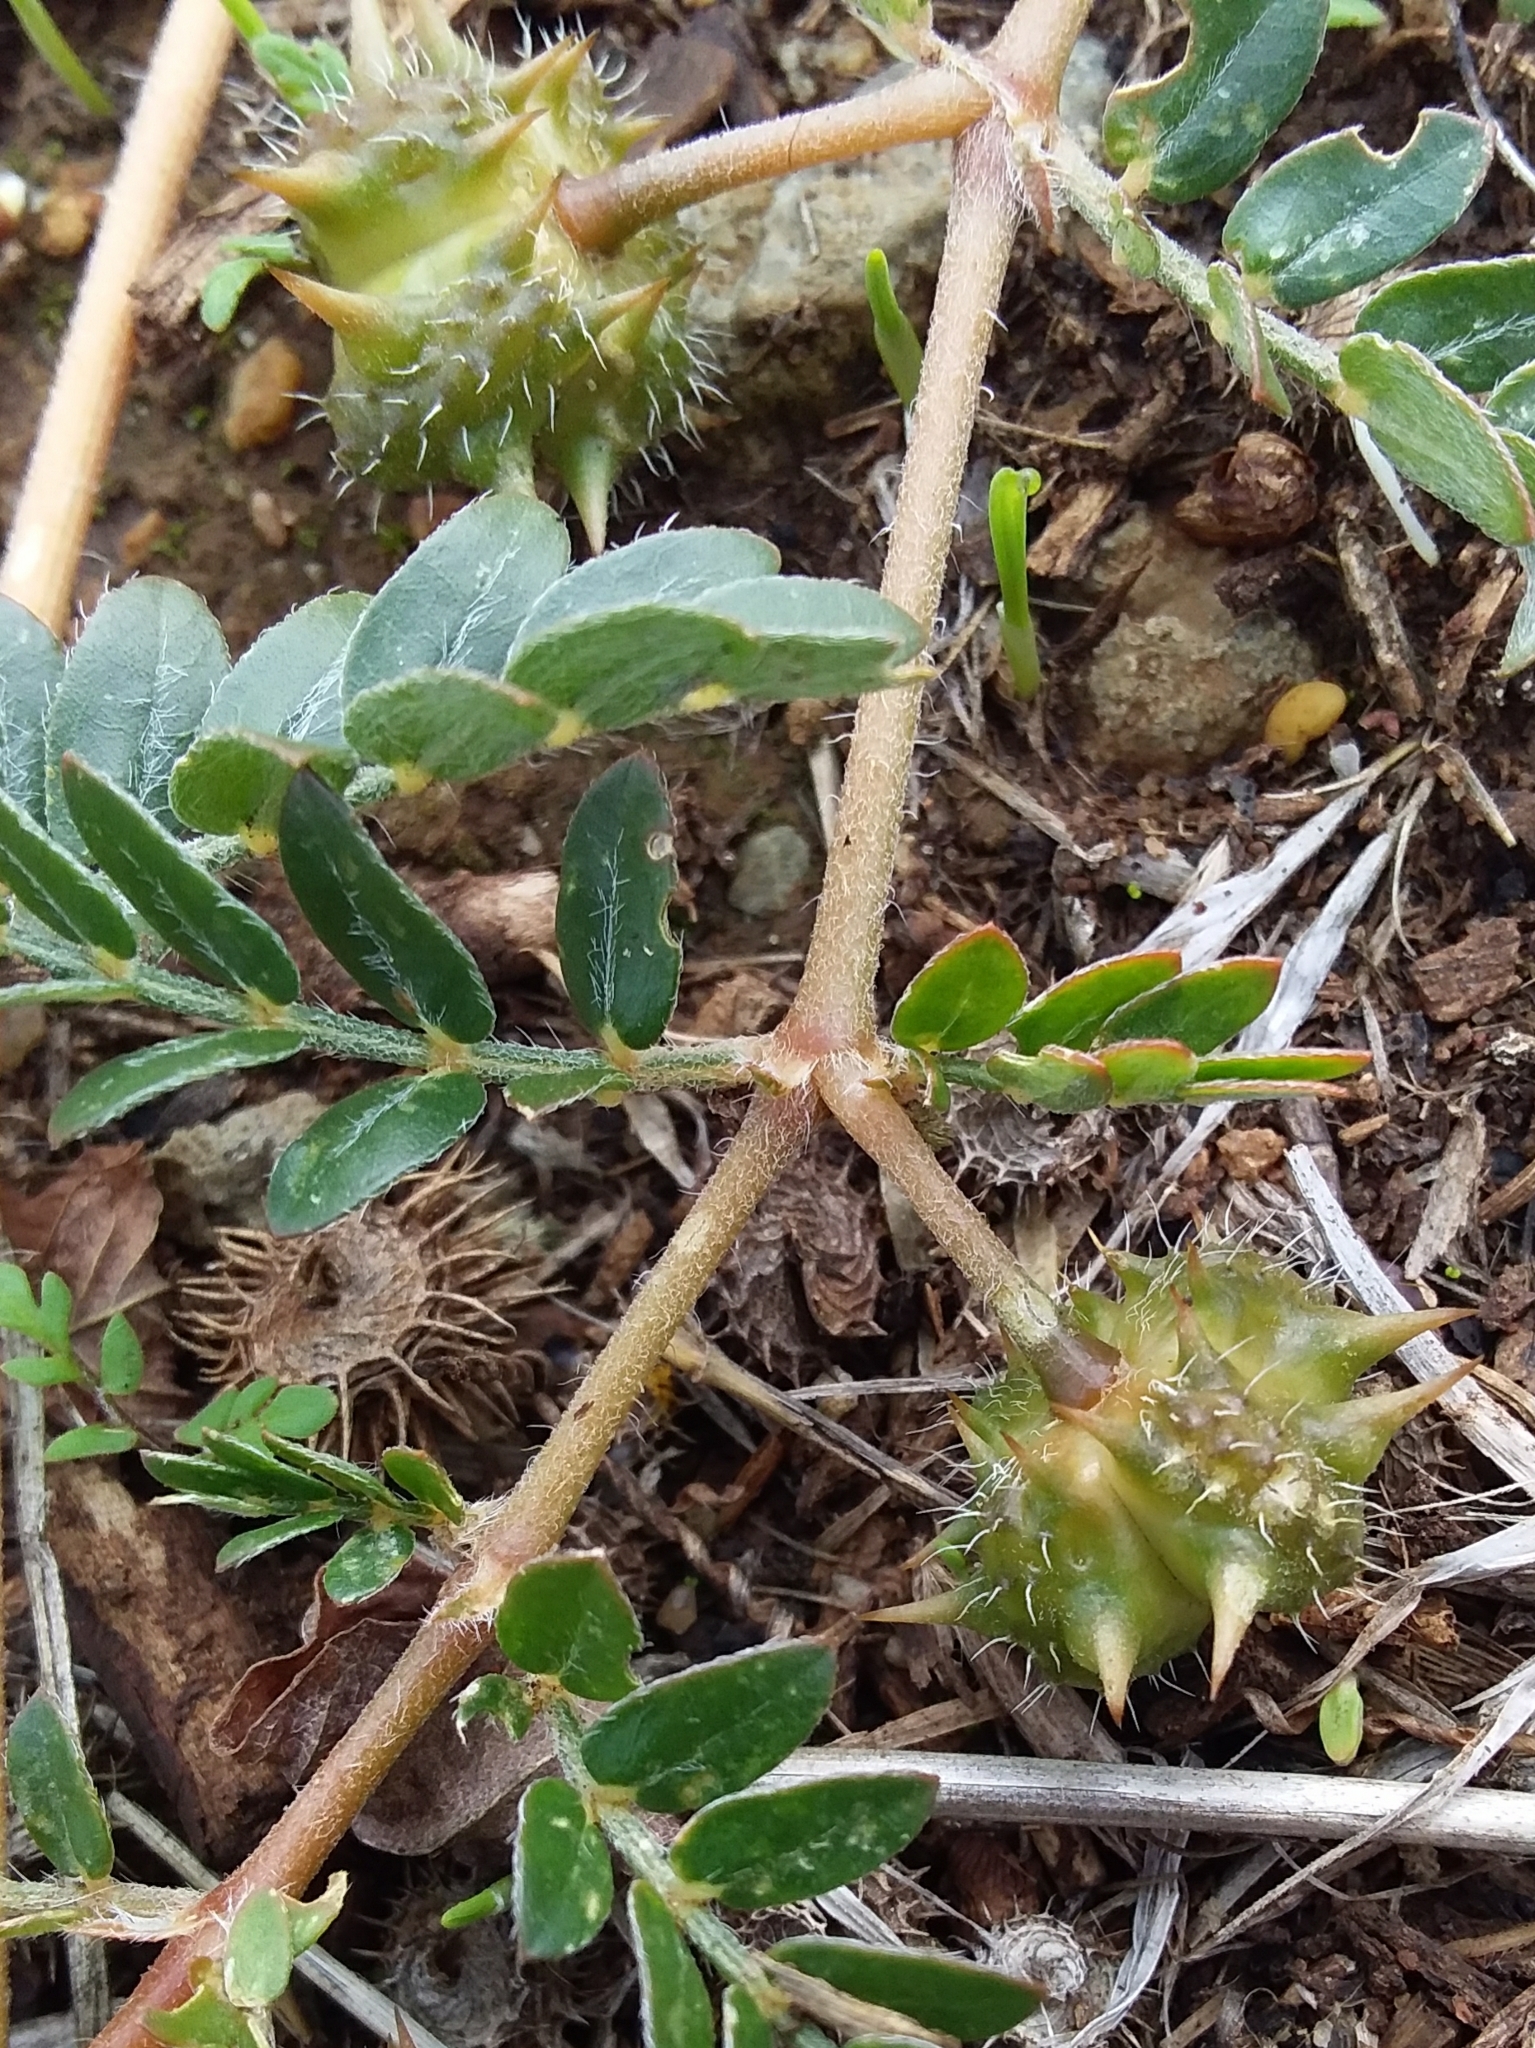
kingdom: Plantae
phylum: Tracheophyta
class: Magnoliopsida
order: Zygophyllales
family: Zygophyllaceae
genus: Tribulus
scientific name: Tribulus terrestris
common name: Puncturevine
